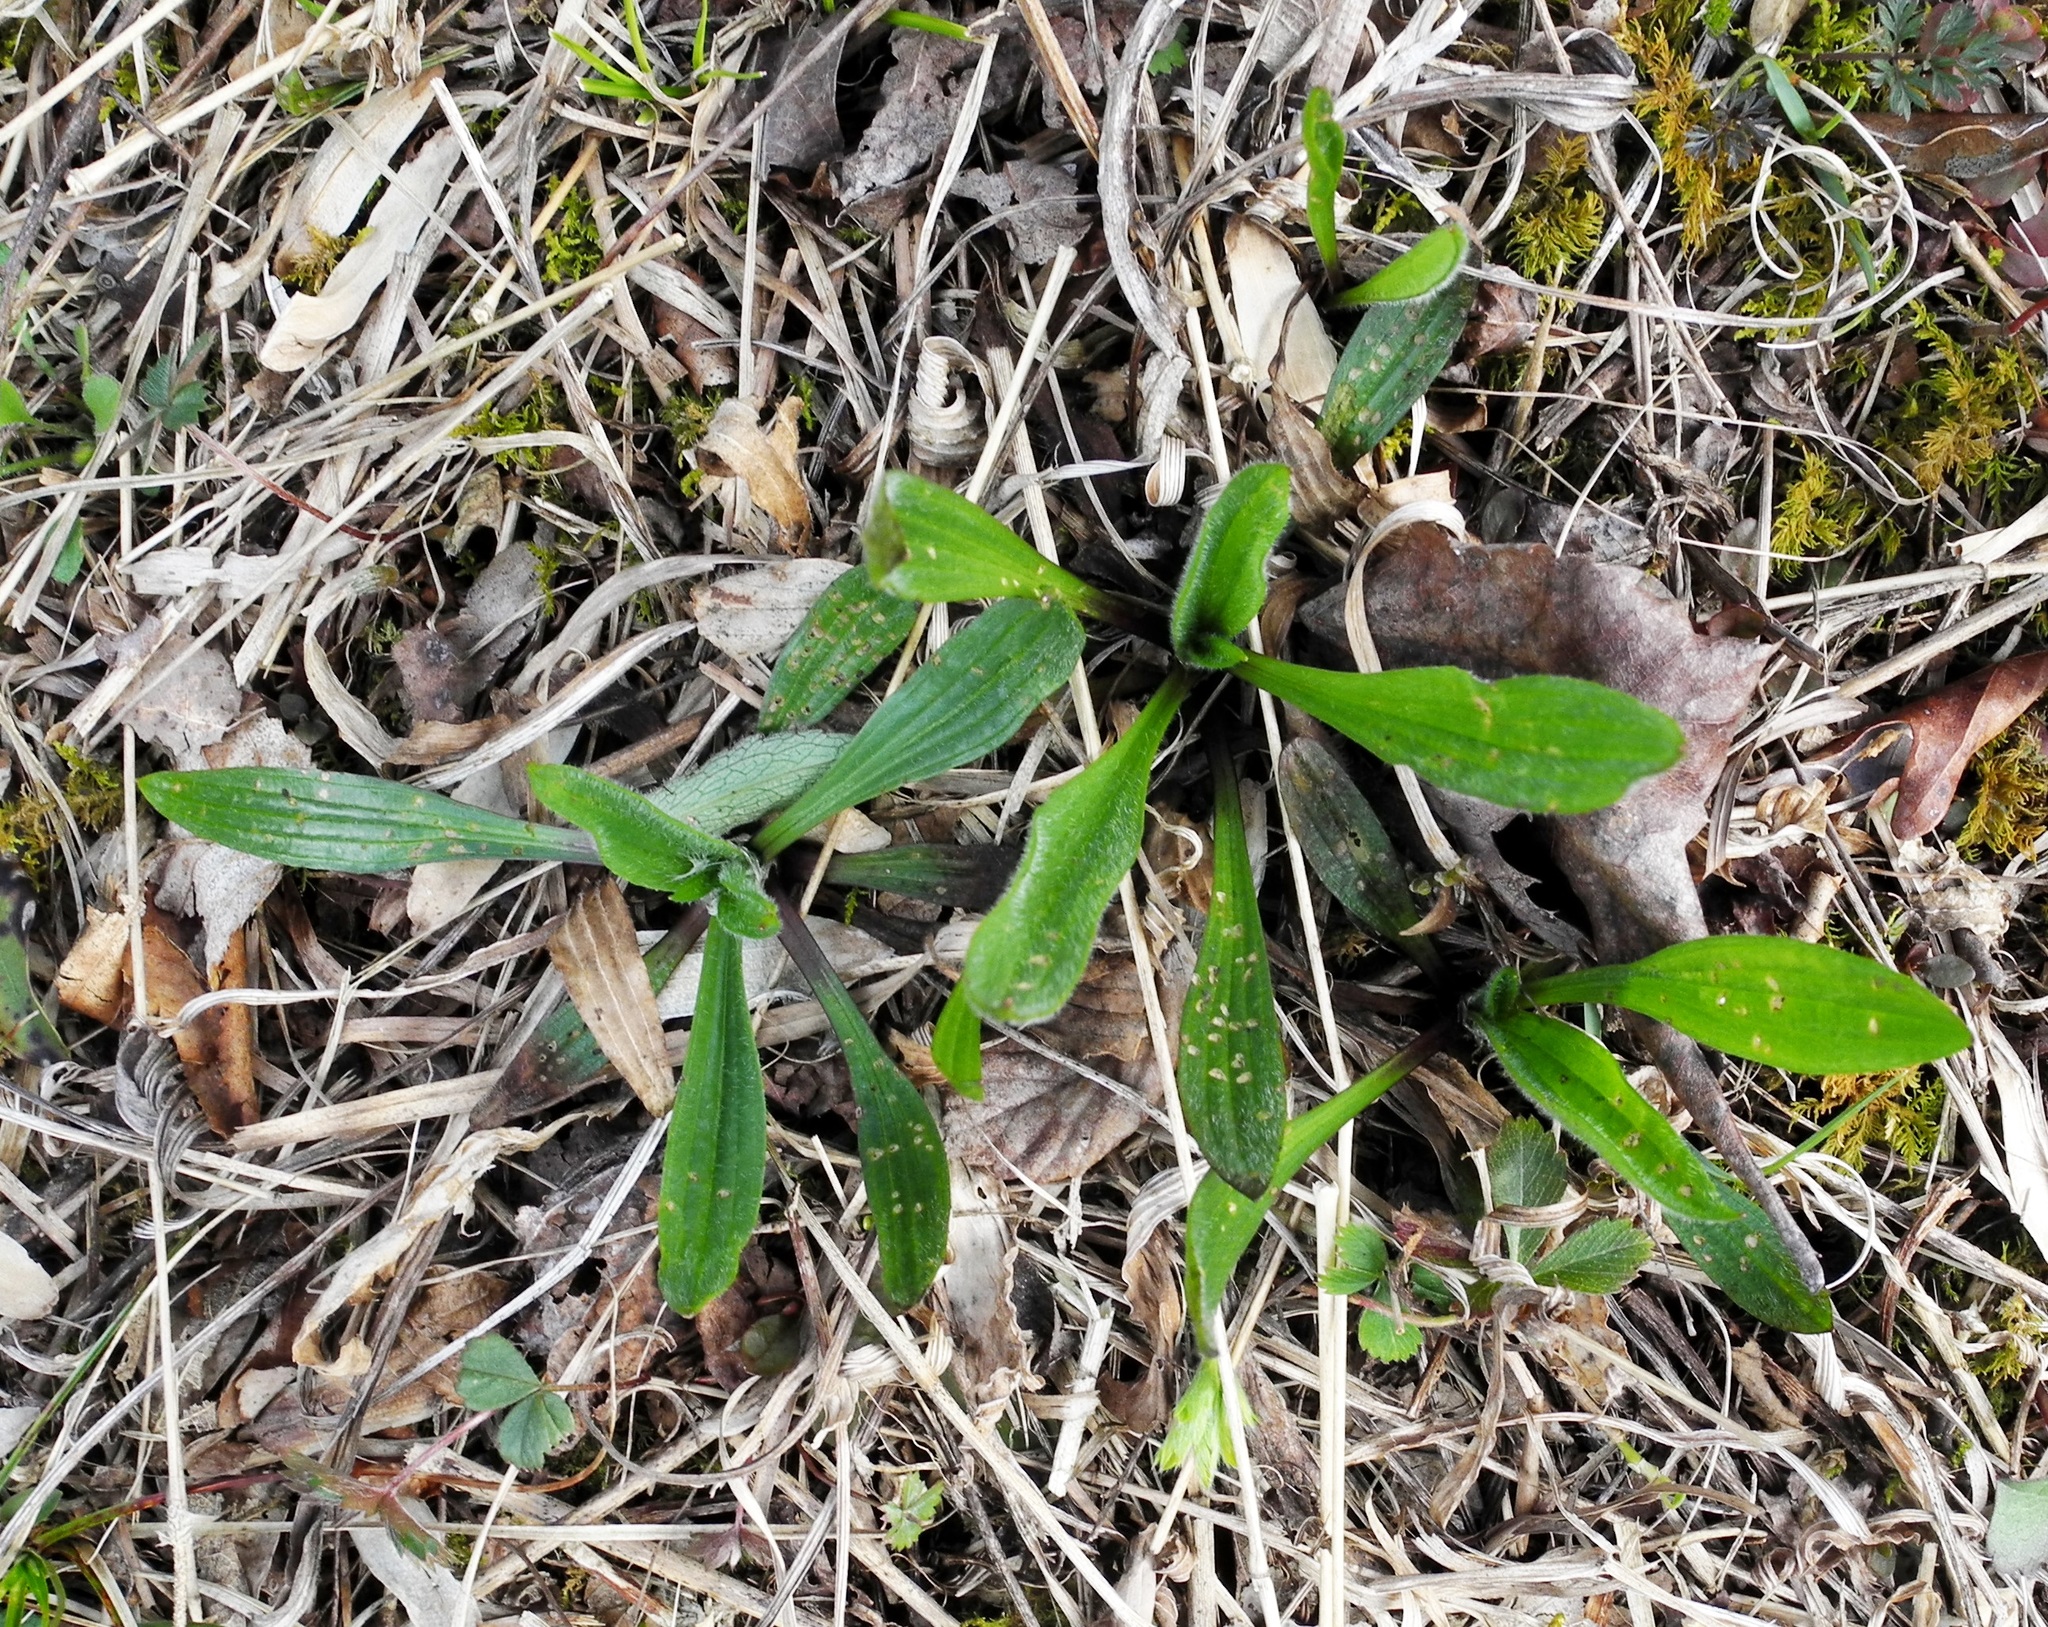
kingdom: Plantae
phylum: Tracheophyta
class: Magnoliopsida
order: Lamiales
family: Plantaginaceae
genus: Plantago
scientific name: Plantago lanceolata
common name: Ribwort plantain
